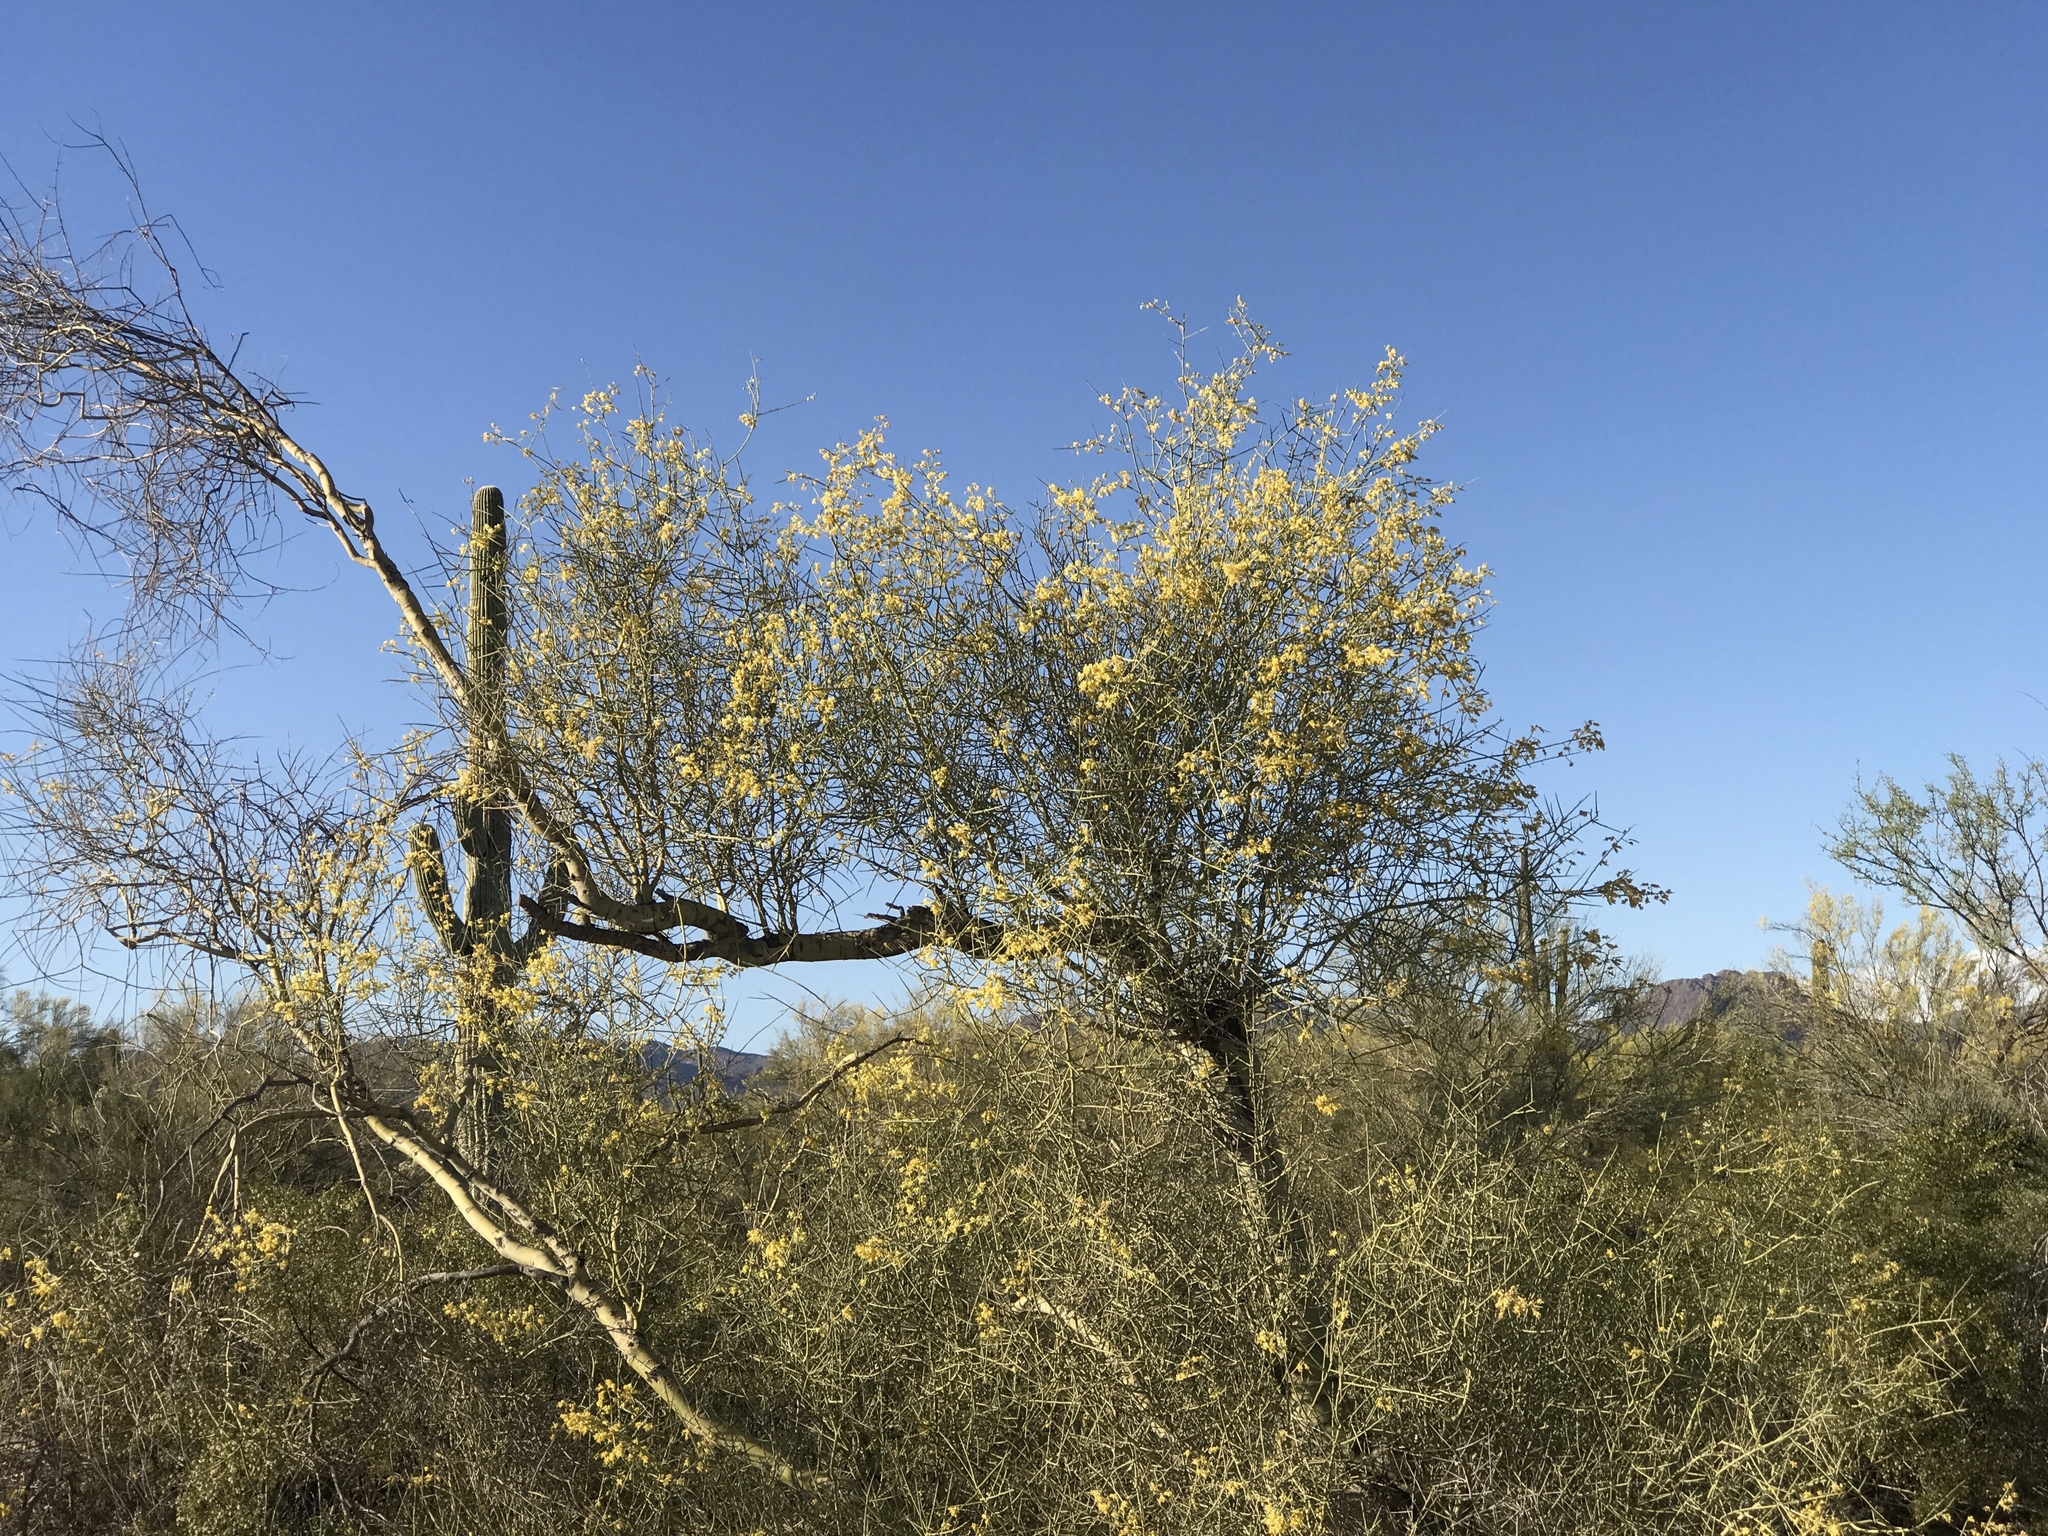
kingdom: Plantae
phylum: Tracheophyta
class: Magnoliopsida
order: Fabales
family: Fabaceae
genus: Parkinsonia
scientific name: Parkinsonia microphylla
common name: Yellow paloverde
